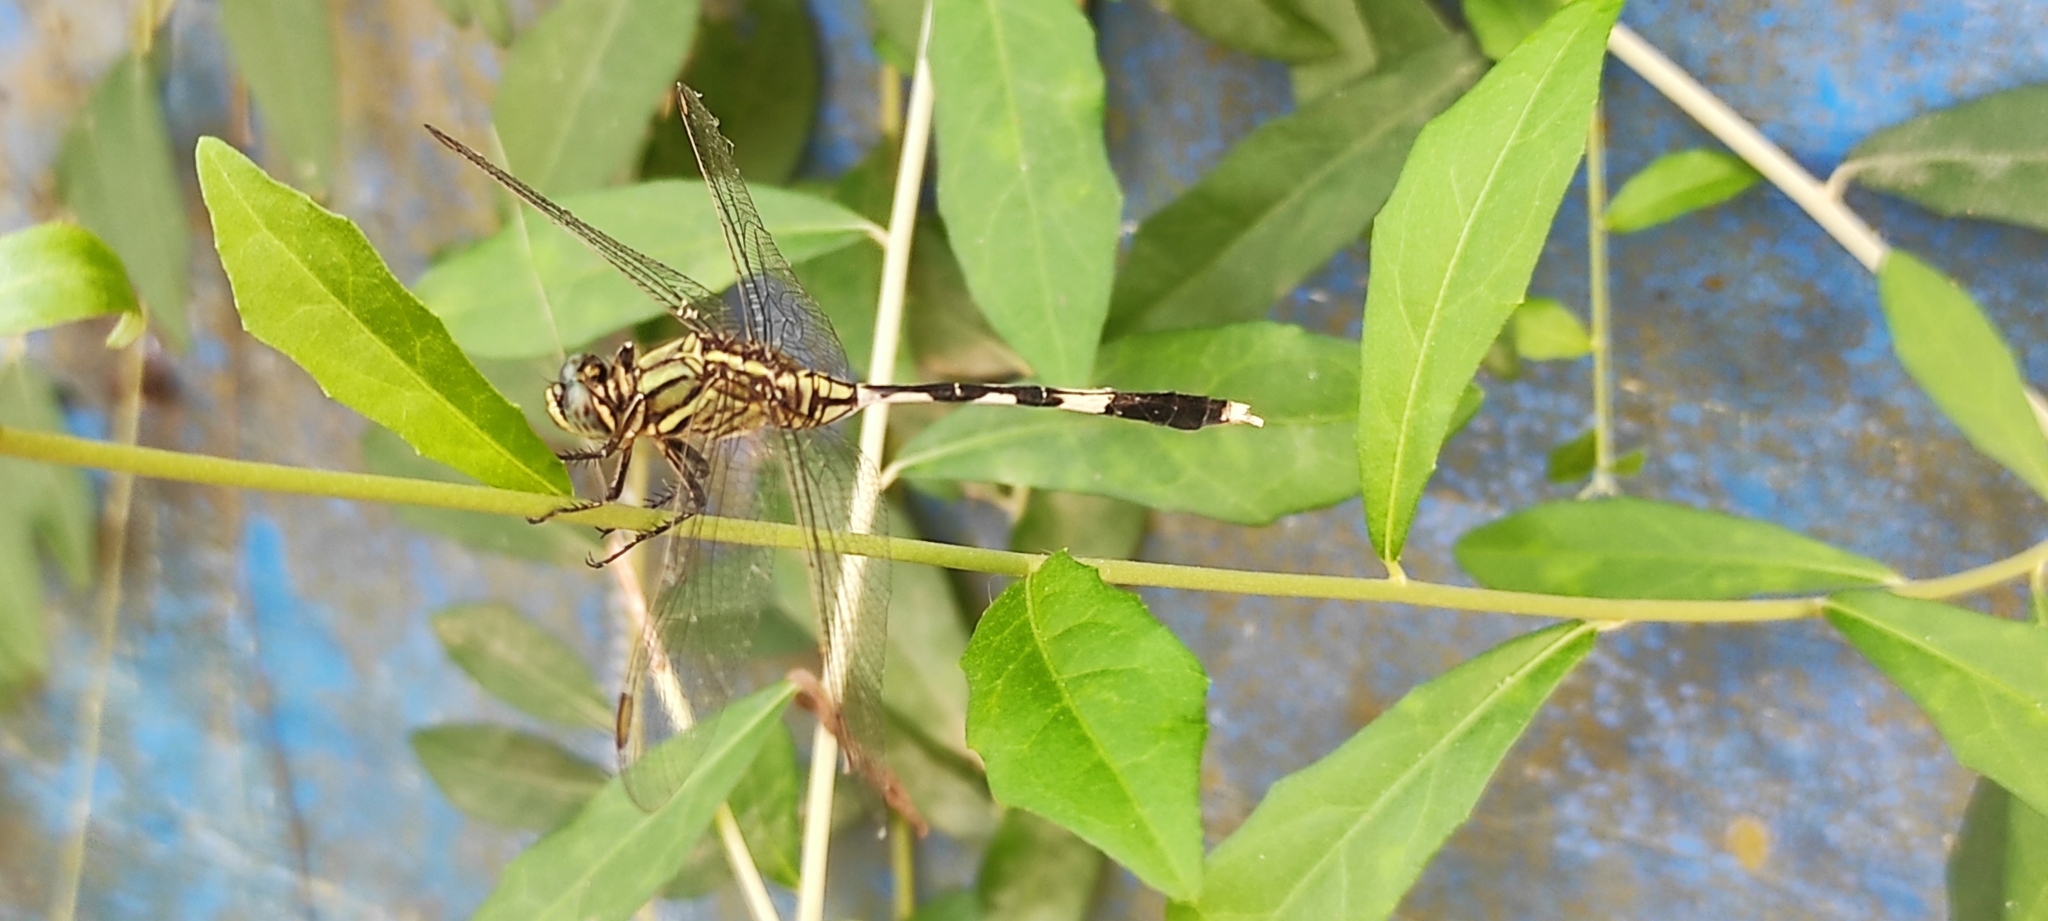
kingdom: Animalia
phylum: Arthropoda
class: Insecta
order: Odonata
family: Libellulidae
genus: Orthetrum
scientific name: Orthetrum sabina
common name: Slender skimmer
